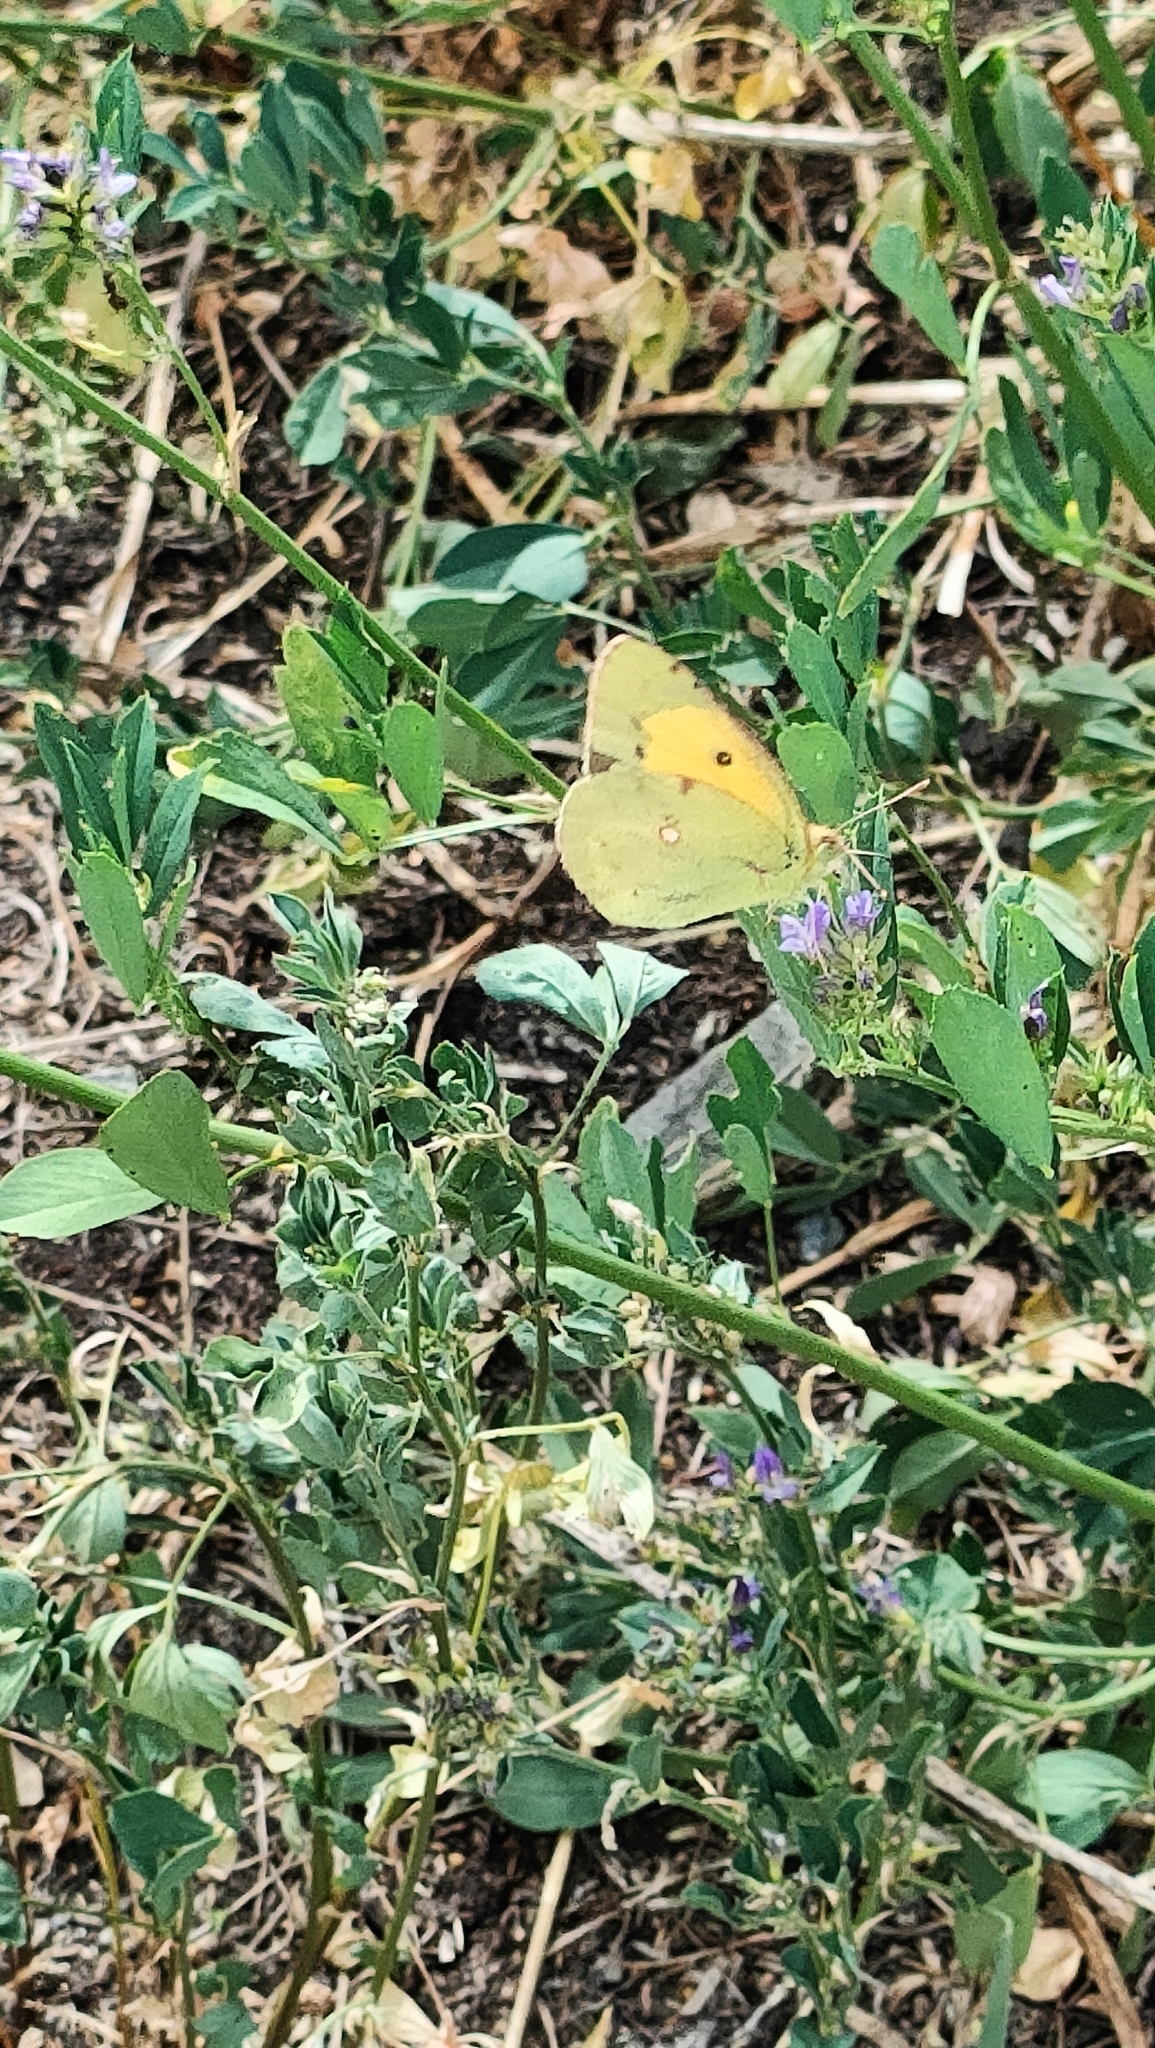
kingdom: Animalia
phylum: Arthropoda
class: Insecta
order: Lepidoptera
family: Pieridae
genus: Colias
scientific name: Colias croceus
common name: Clouded yellow
